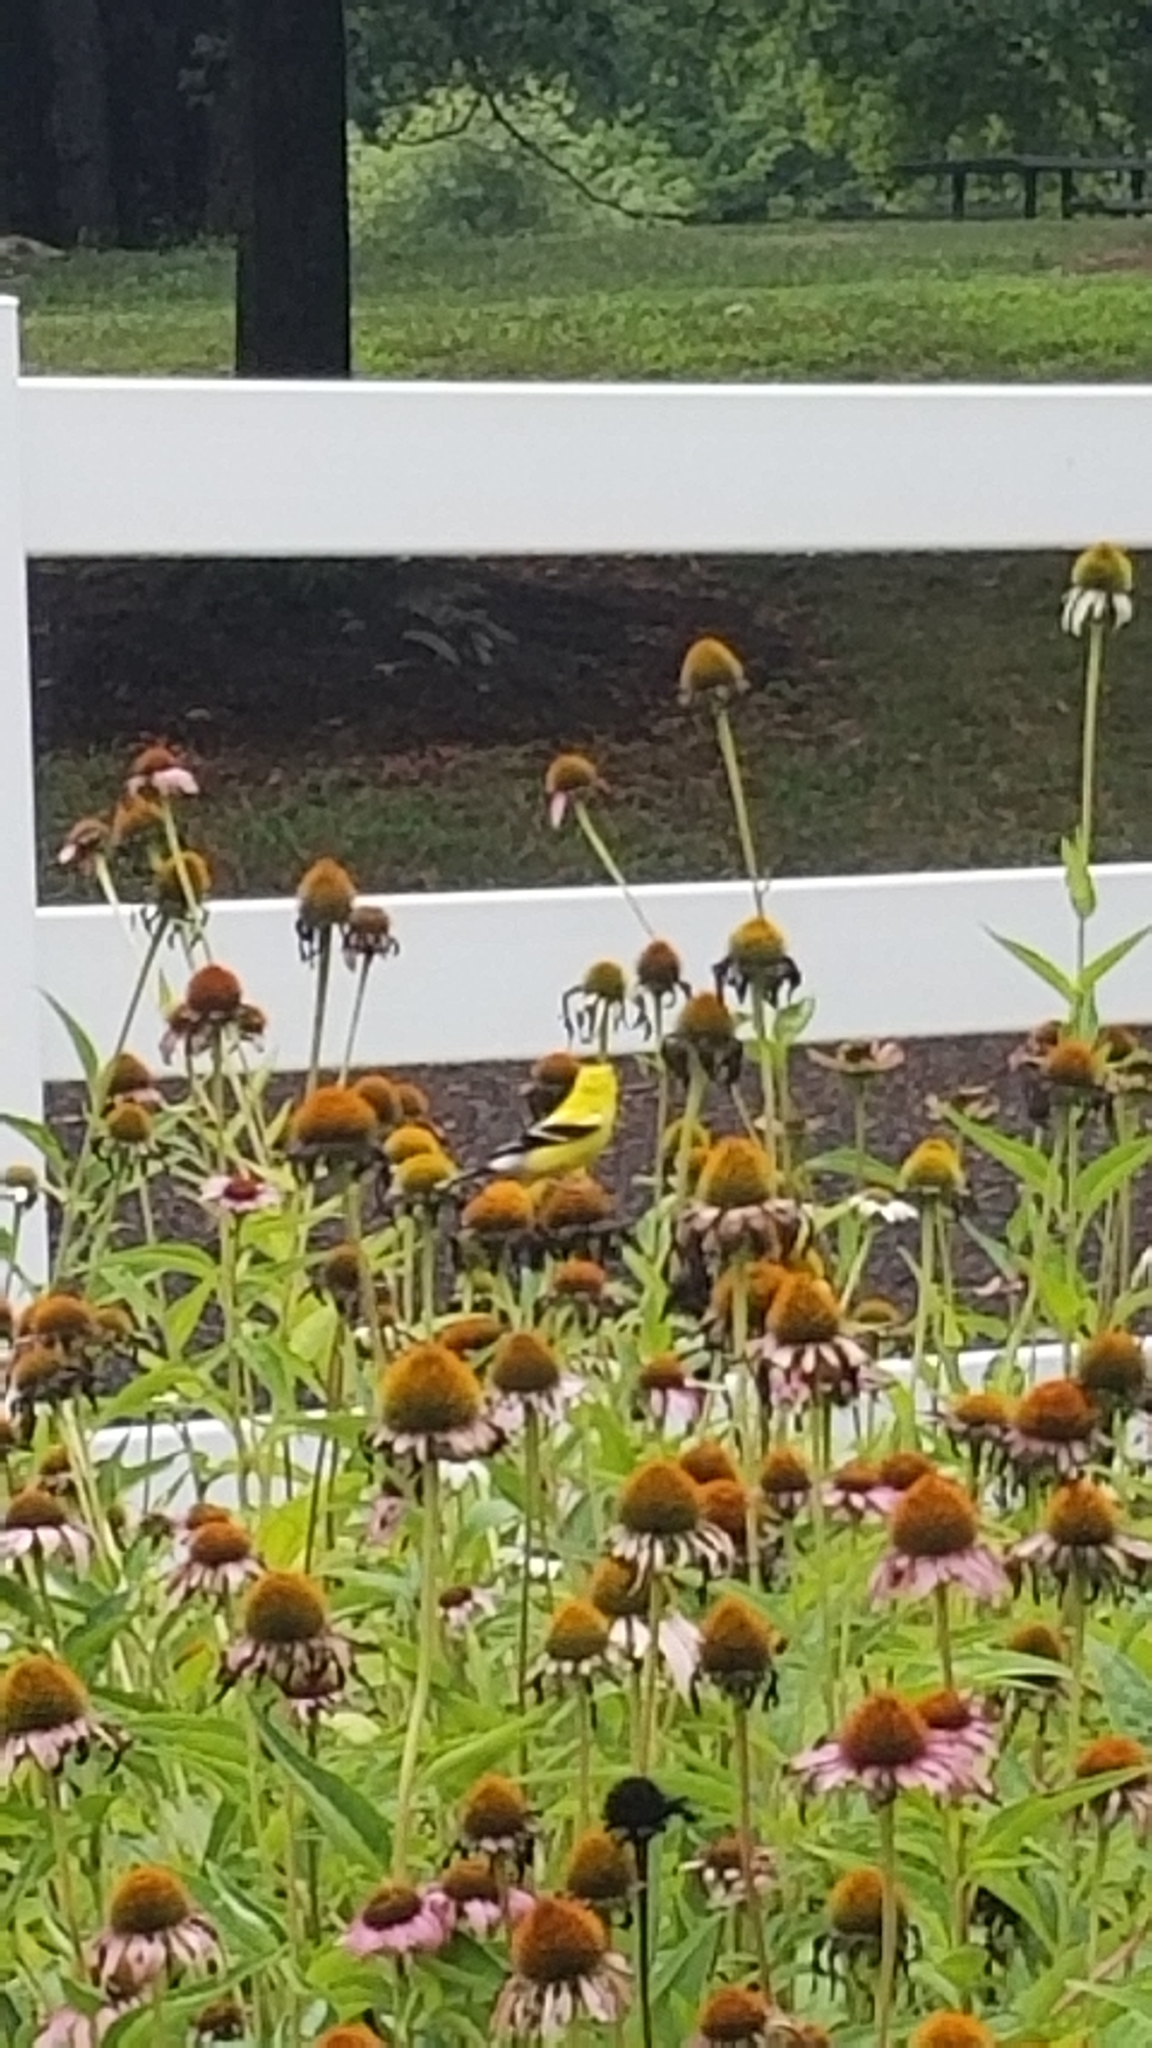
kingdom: Animalia
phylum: Chordata
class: Aves
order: Passeriformes
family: Fringillidae
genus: Spinus
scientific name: Spinus tristis
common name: American goldfinch
